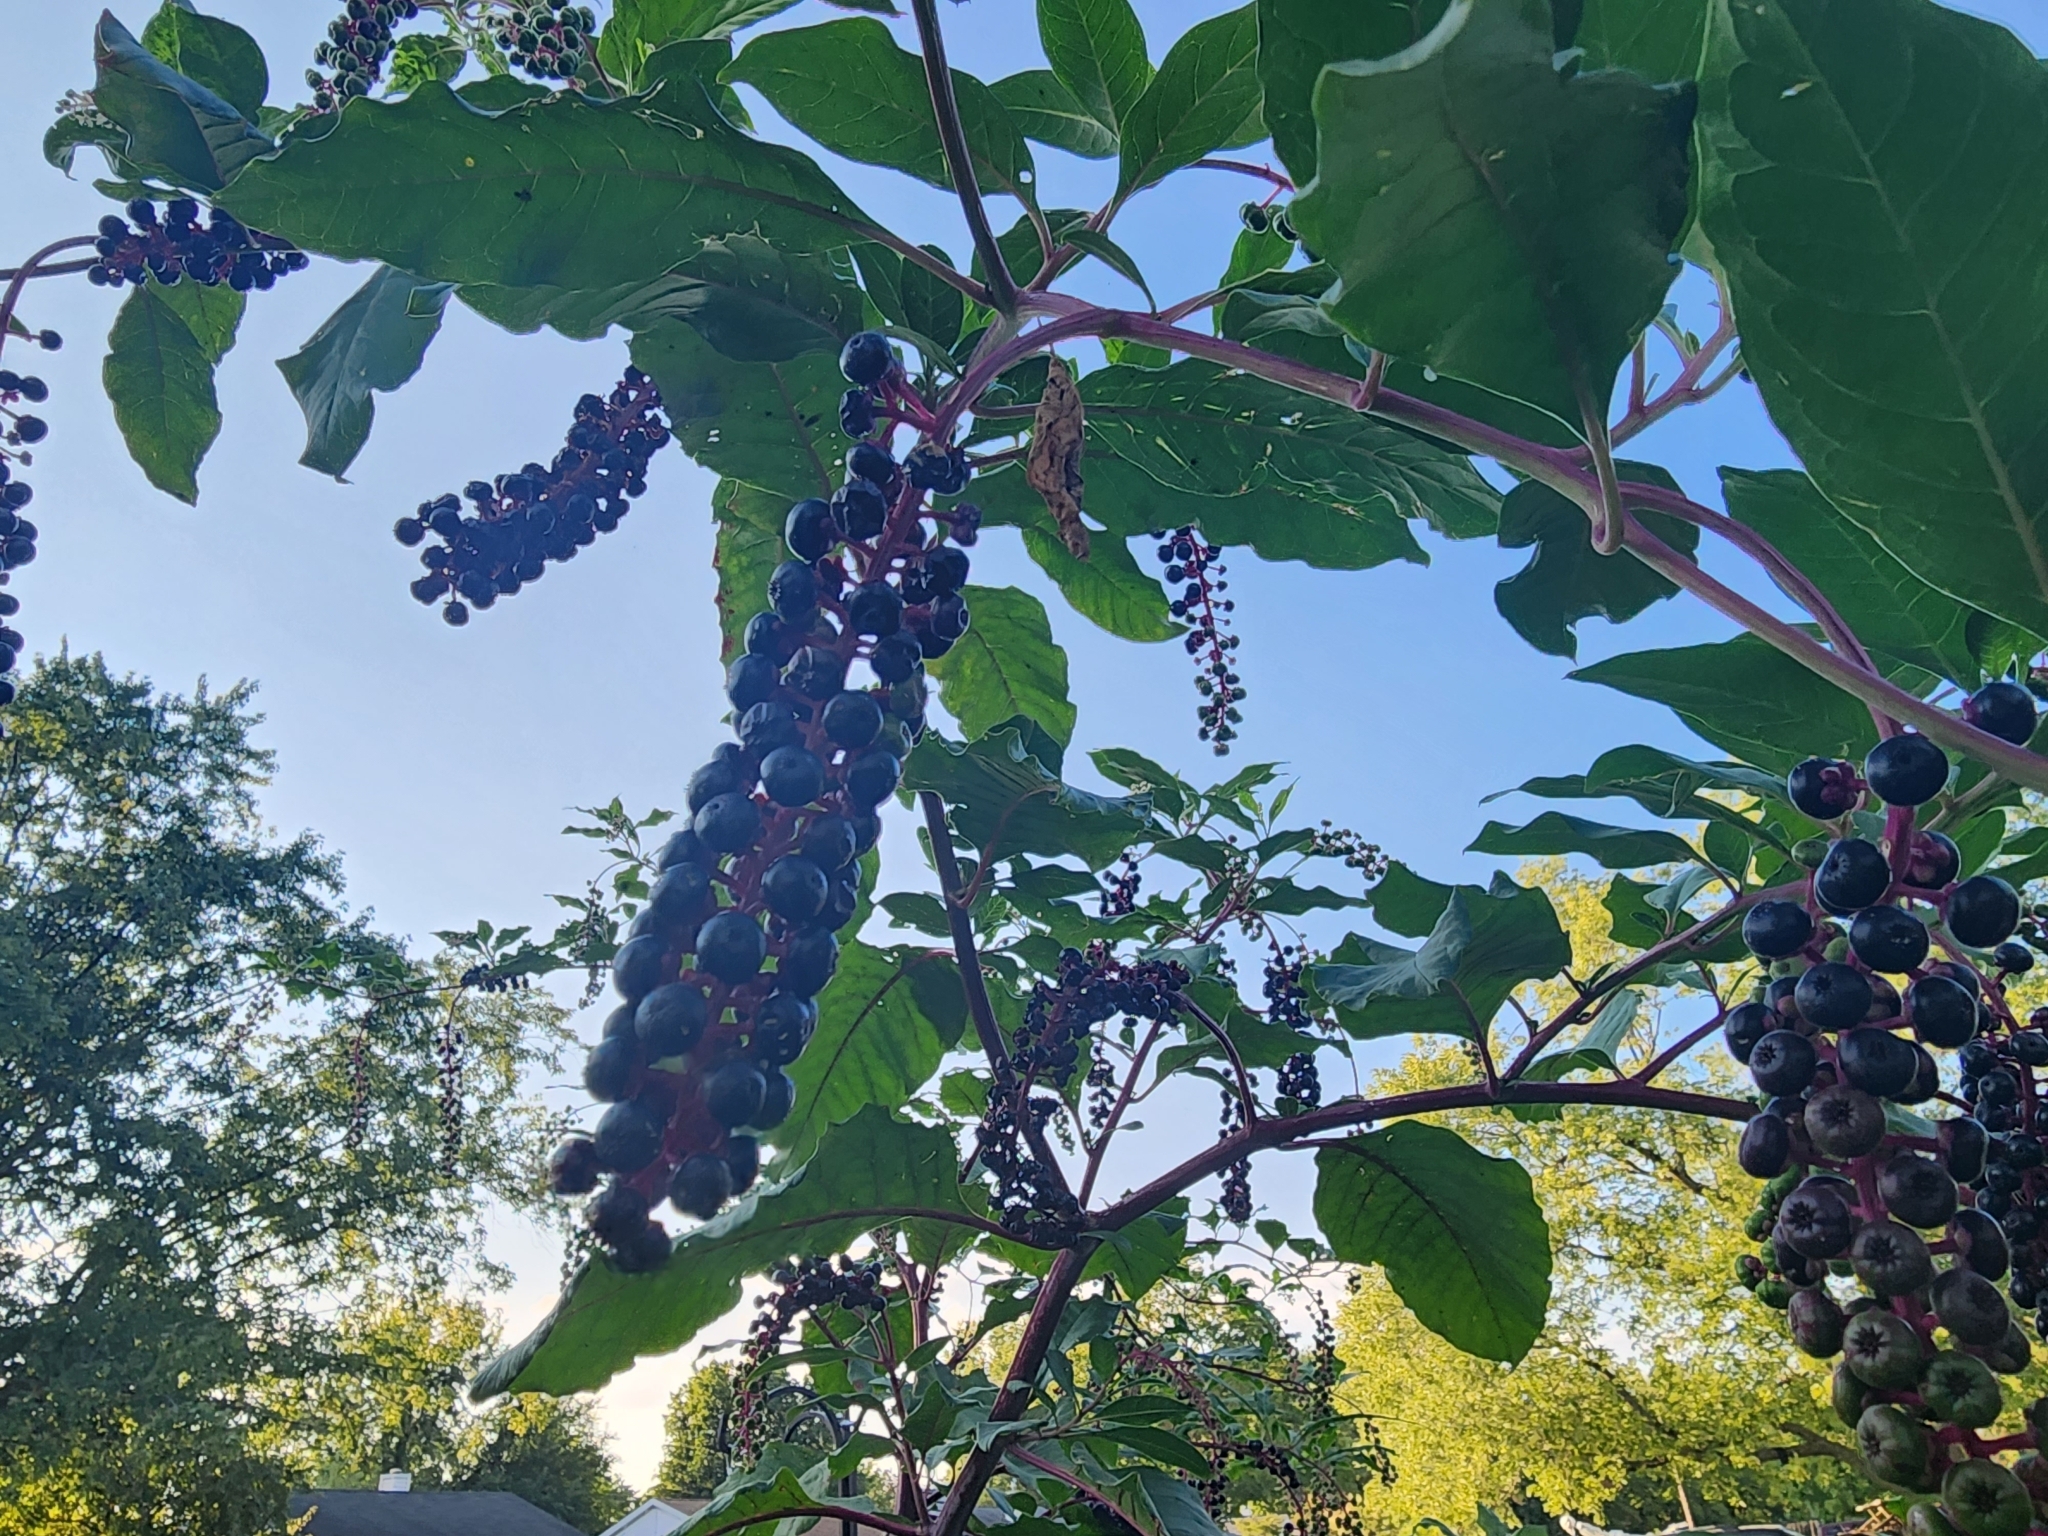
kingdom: Plantae
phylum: Tracheophyta
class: Magnoliopsida
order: Caryophyllales
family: Phytolaccaceae
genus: Phytolacca
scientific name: Phytolacca americana
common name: American pokeweed
